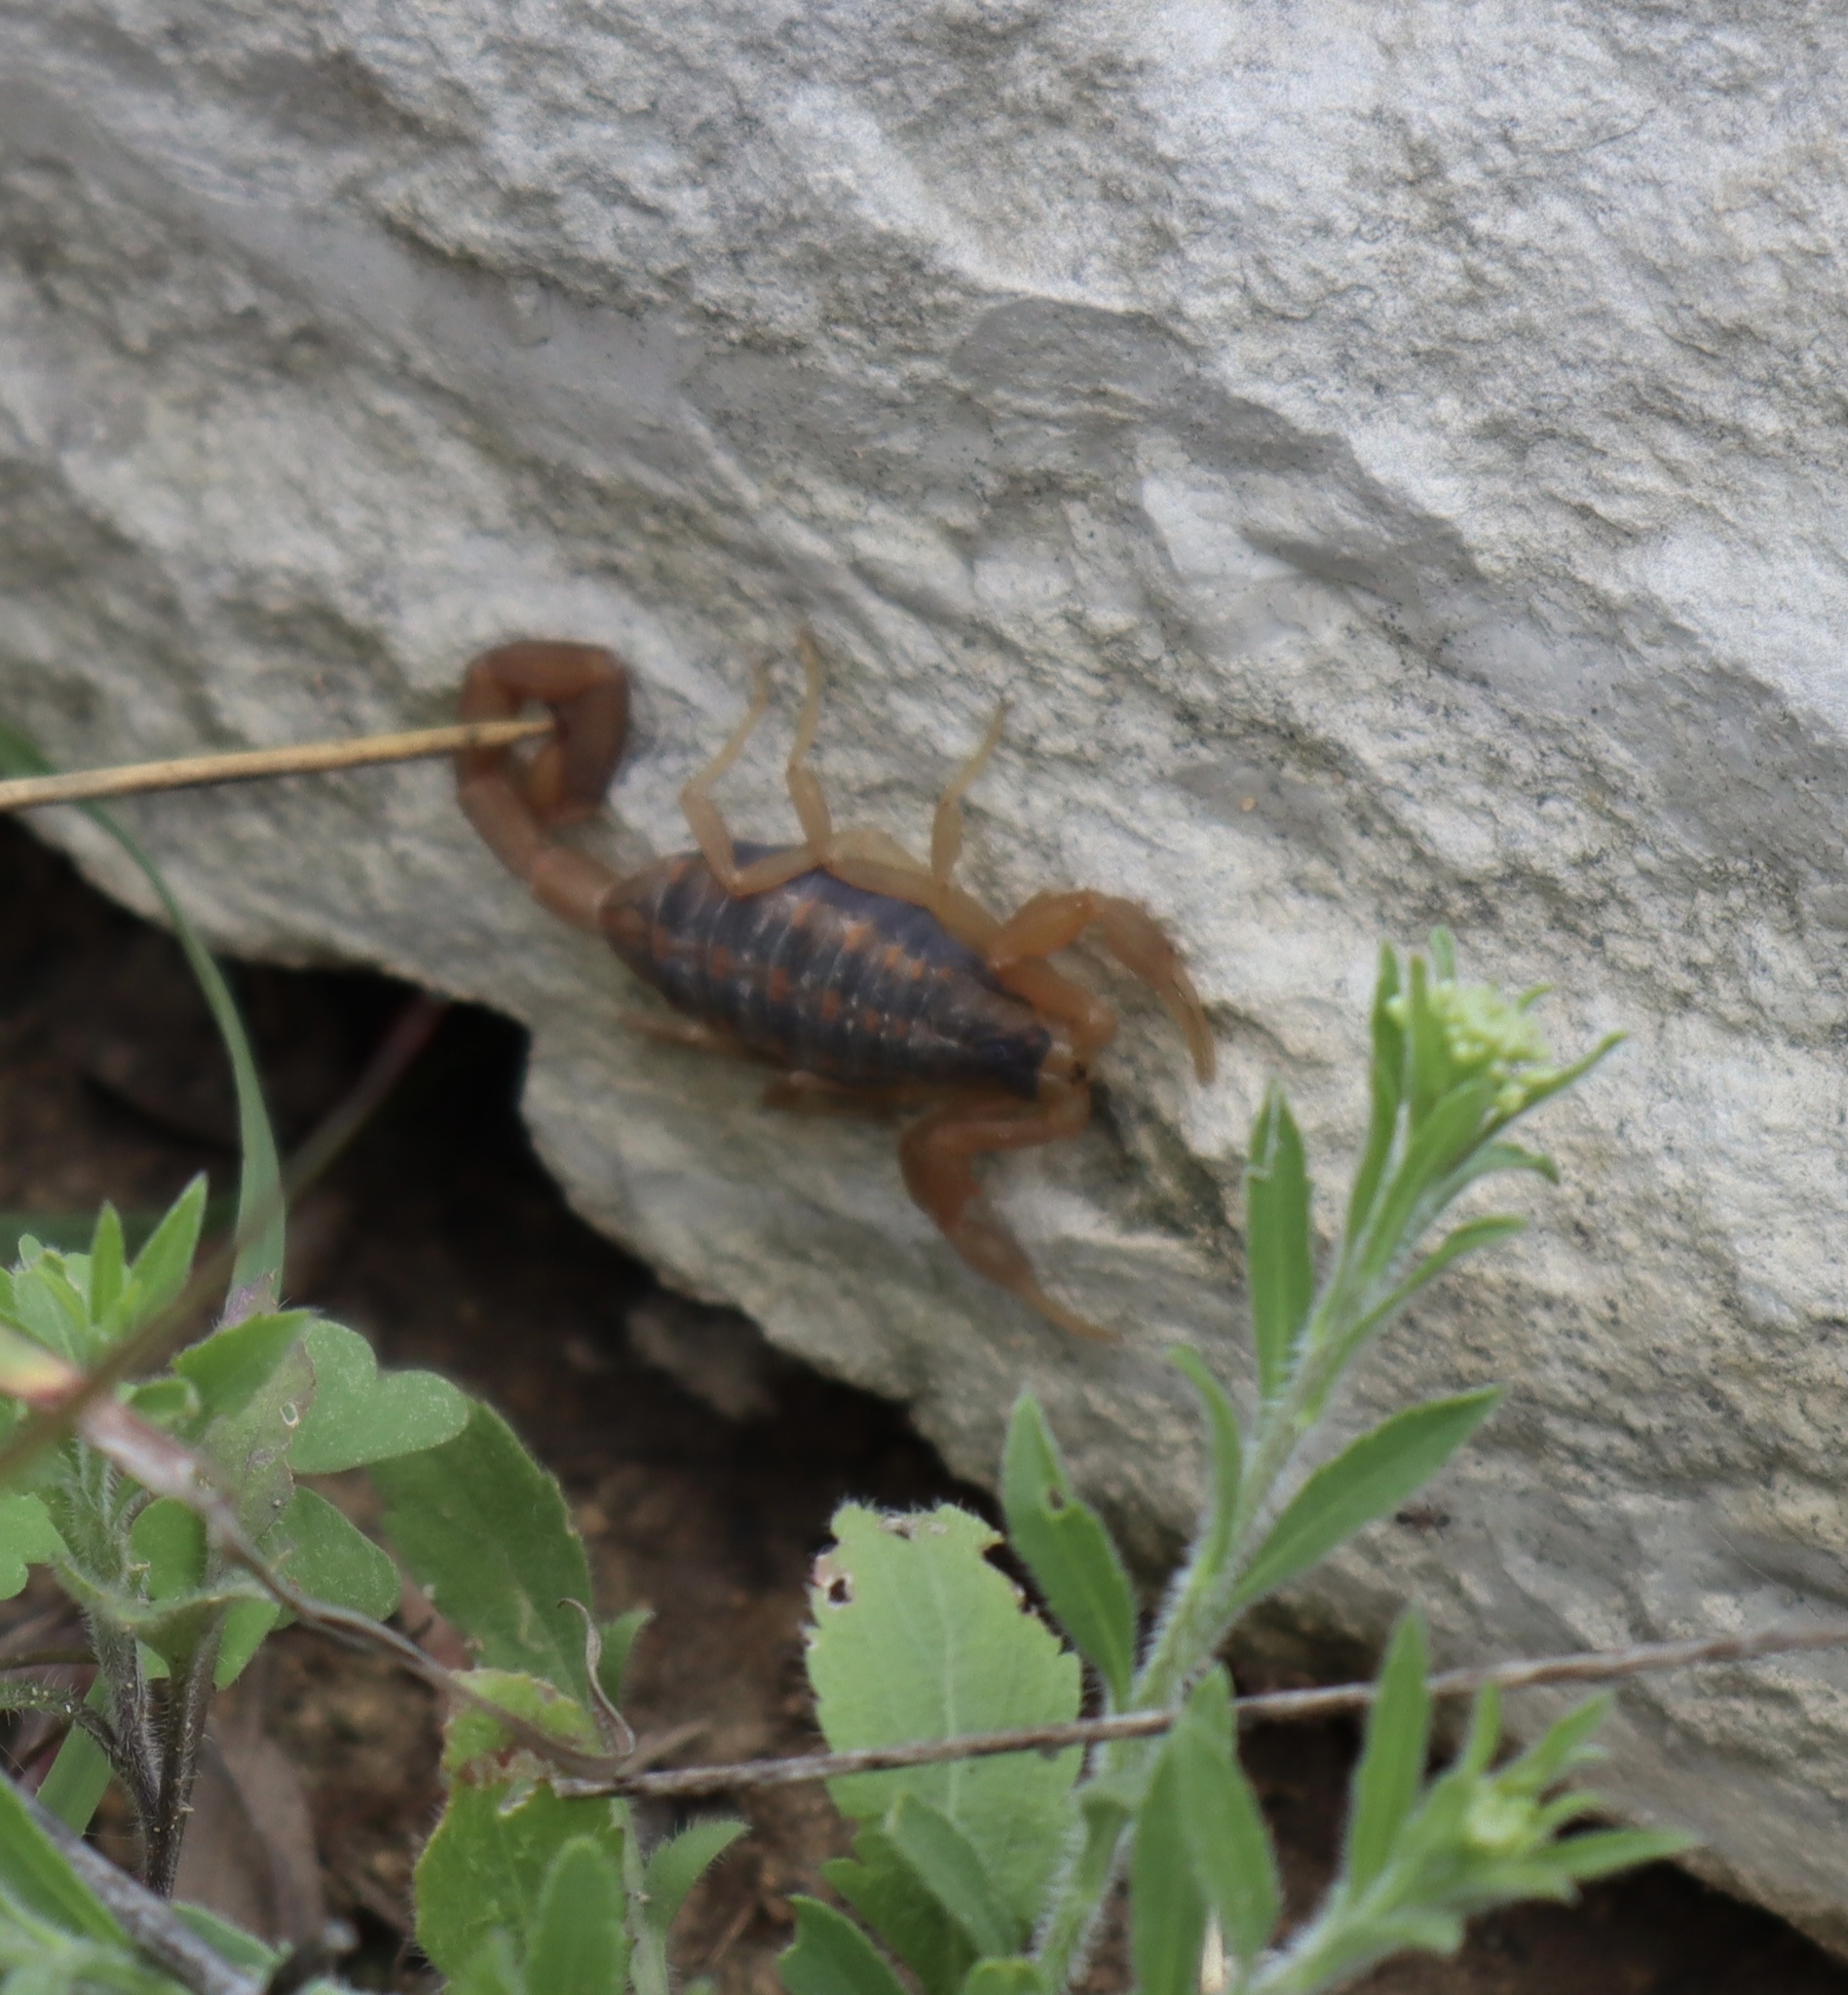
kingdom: Animalia
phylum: Arthropoda
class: Arachnida
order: Scorpiones
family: Buthidae
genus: Centruroides
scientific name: Centruroides vittatus
